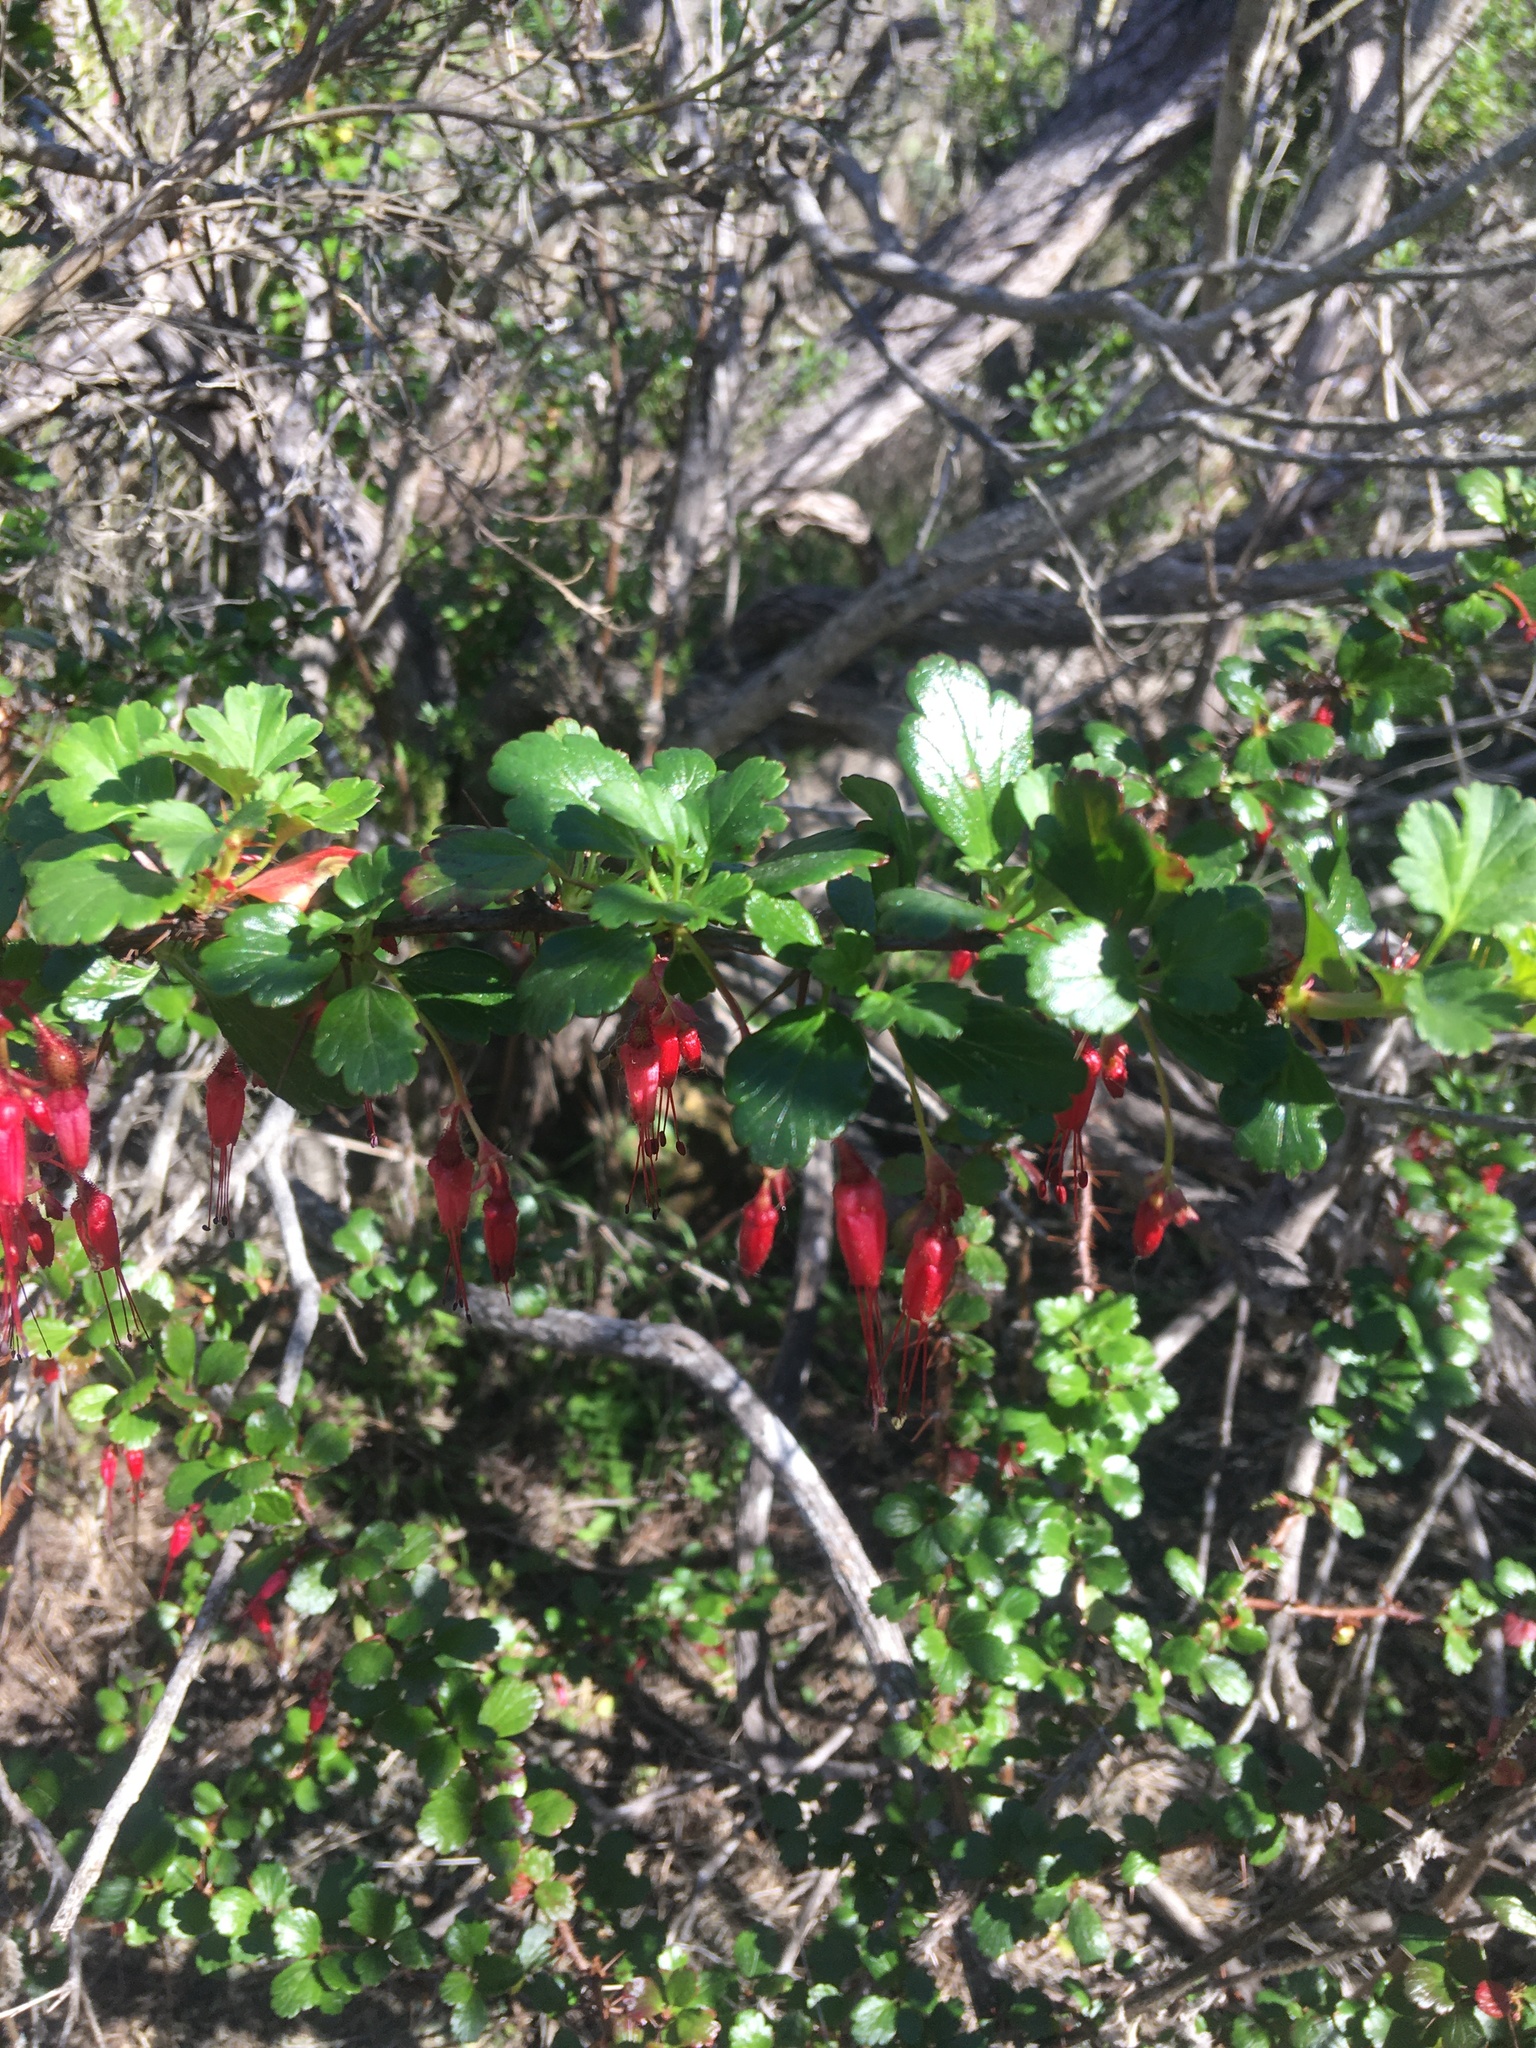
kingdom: Plantae
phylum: Tracheophyta
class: Magnoliopsida
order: Saxifragales
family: Grossulariaceae
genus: Ribes
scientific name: Ribes speciosum
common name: Fuchsia-flower gooseberry
